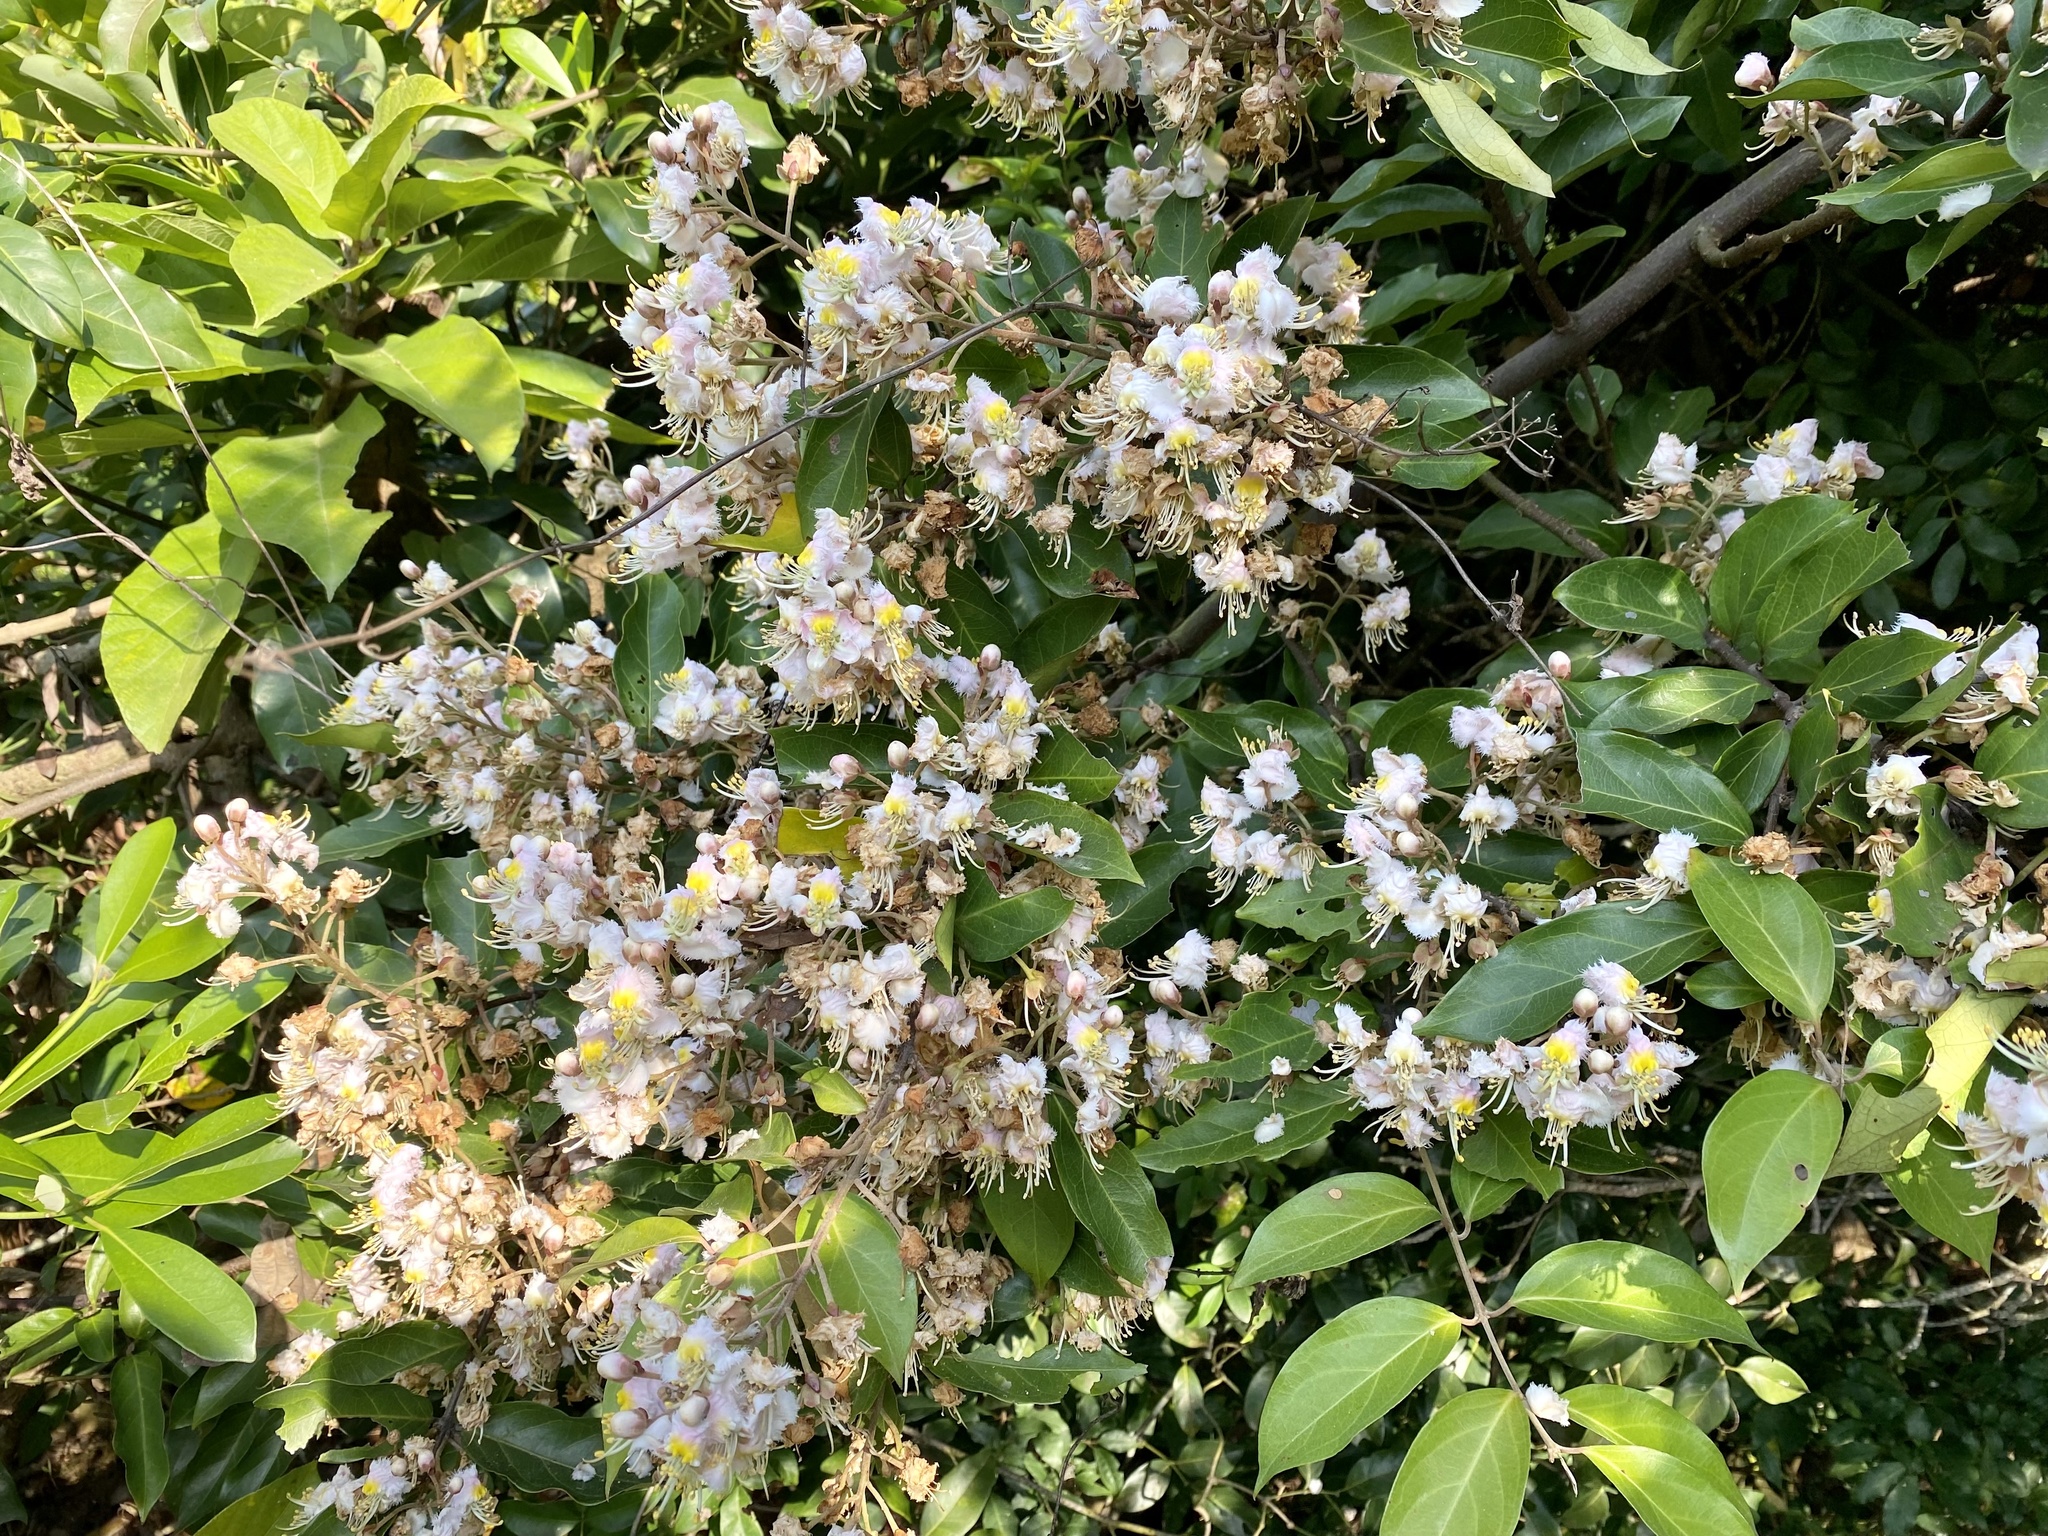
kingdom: Plantae
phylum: Tracheophyta
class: Magnoliopsida
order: Malpighiales
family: Malpighiaceae
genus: Hiptage
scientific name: Hiptage benghalensis
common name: Hiptage
